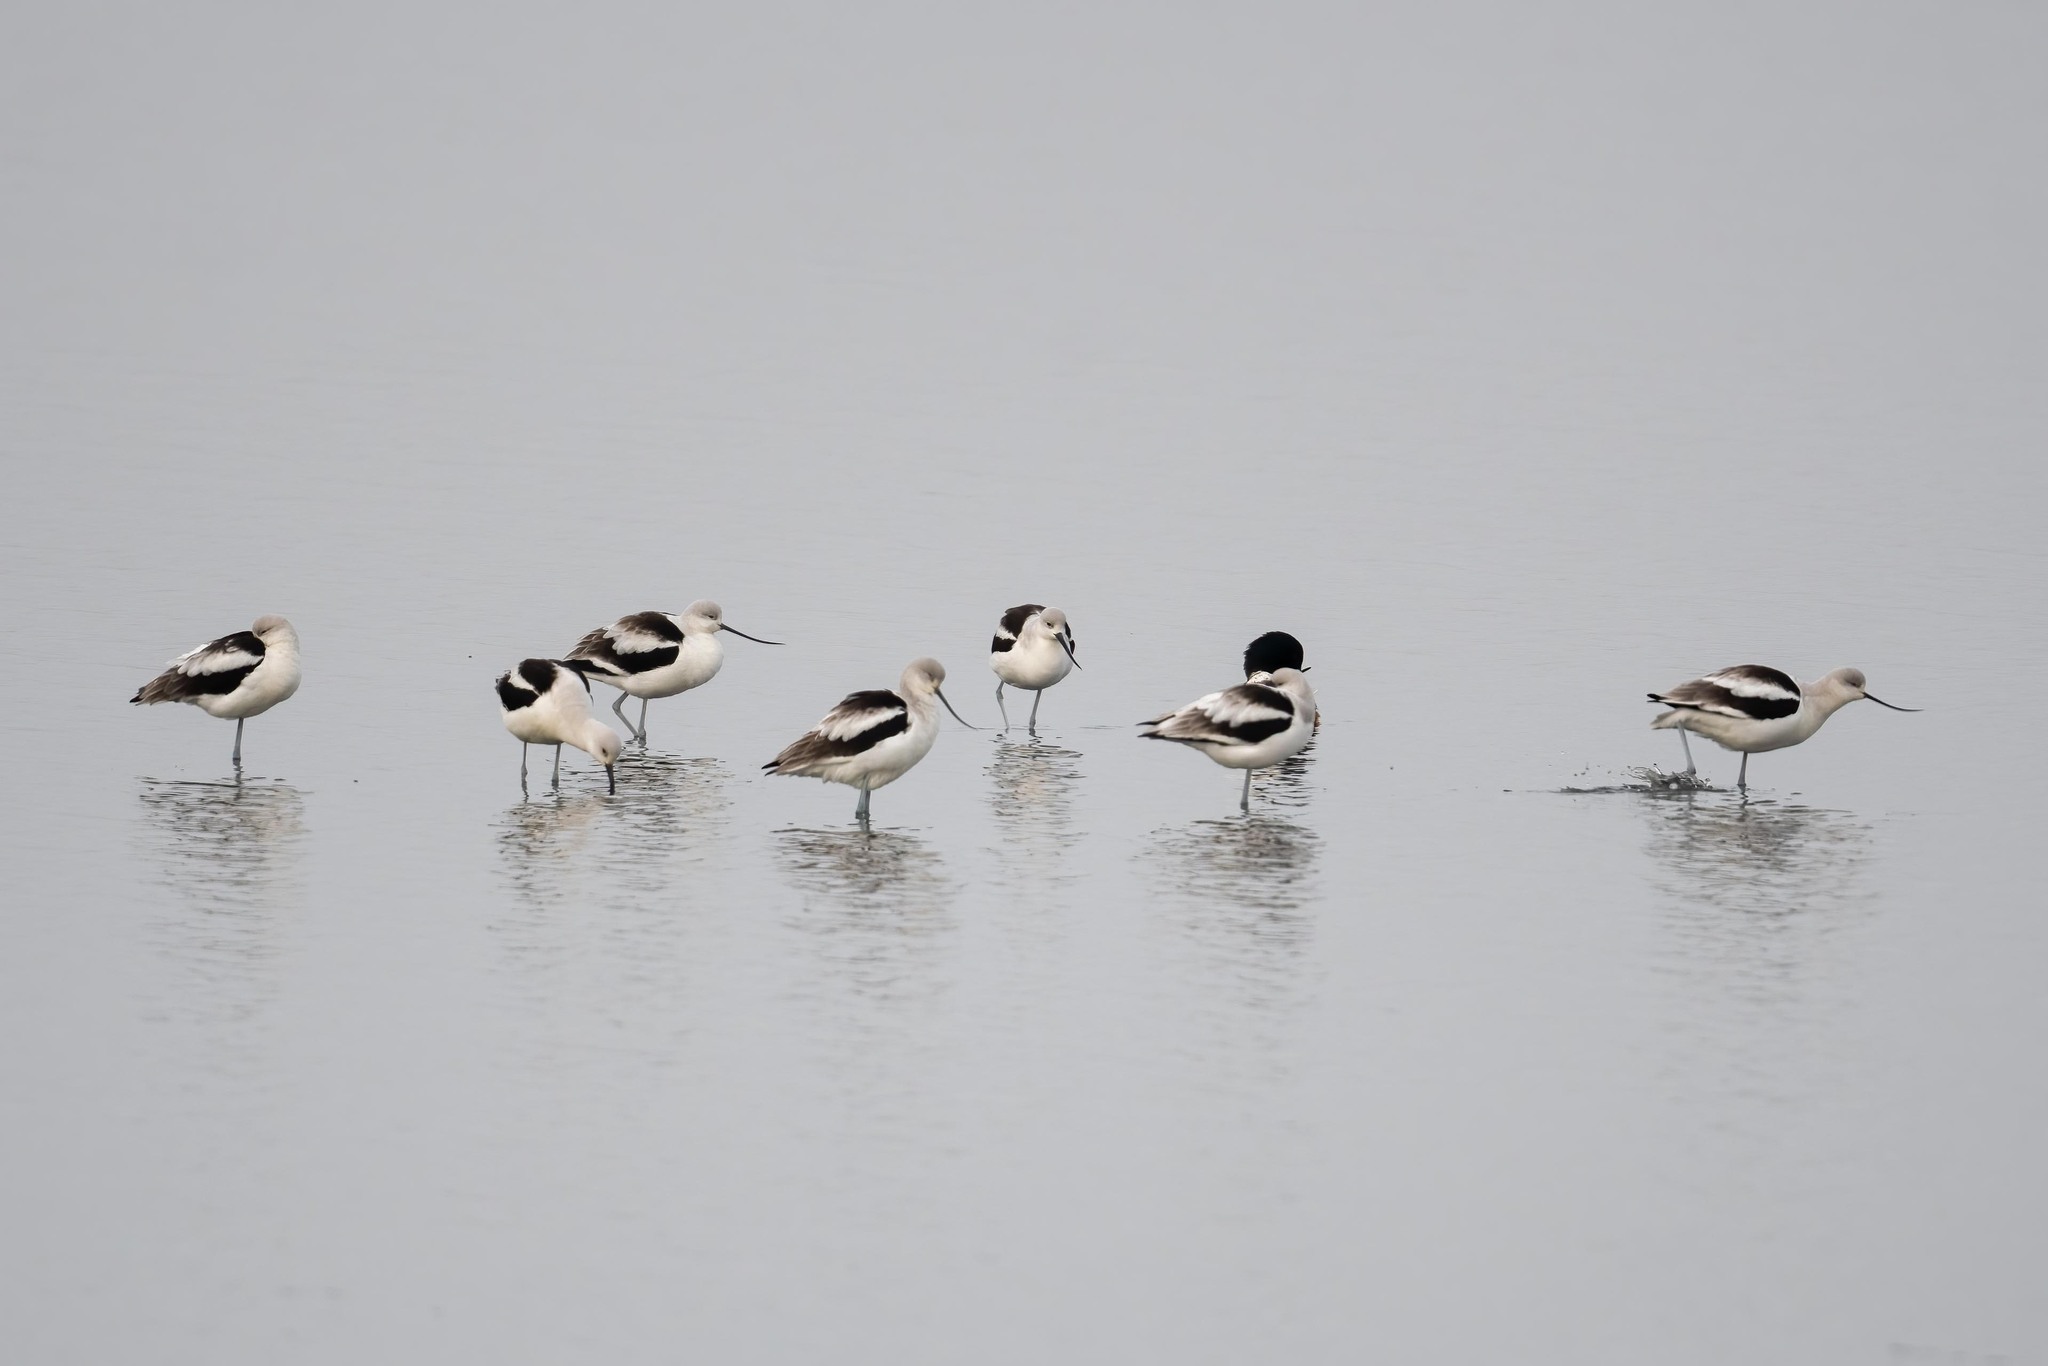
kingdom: Animalia
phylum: Chordata
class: Aves
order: Charadriiformes
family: Recurvirostridae
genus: Recurvirostra
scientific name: Recurvirostra americana
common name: American avocet
